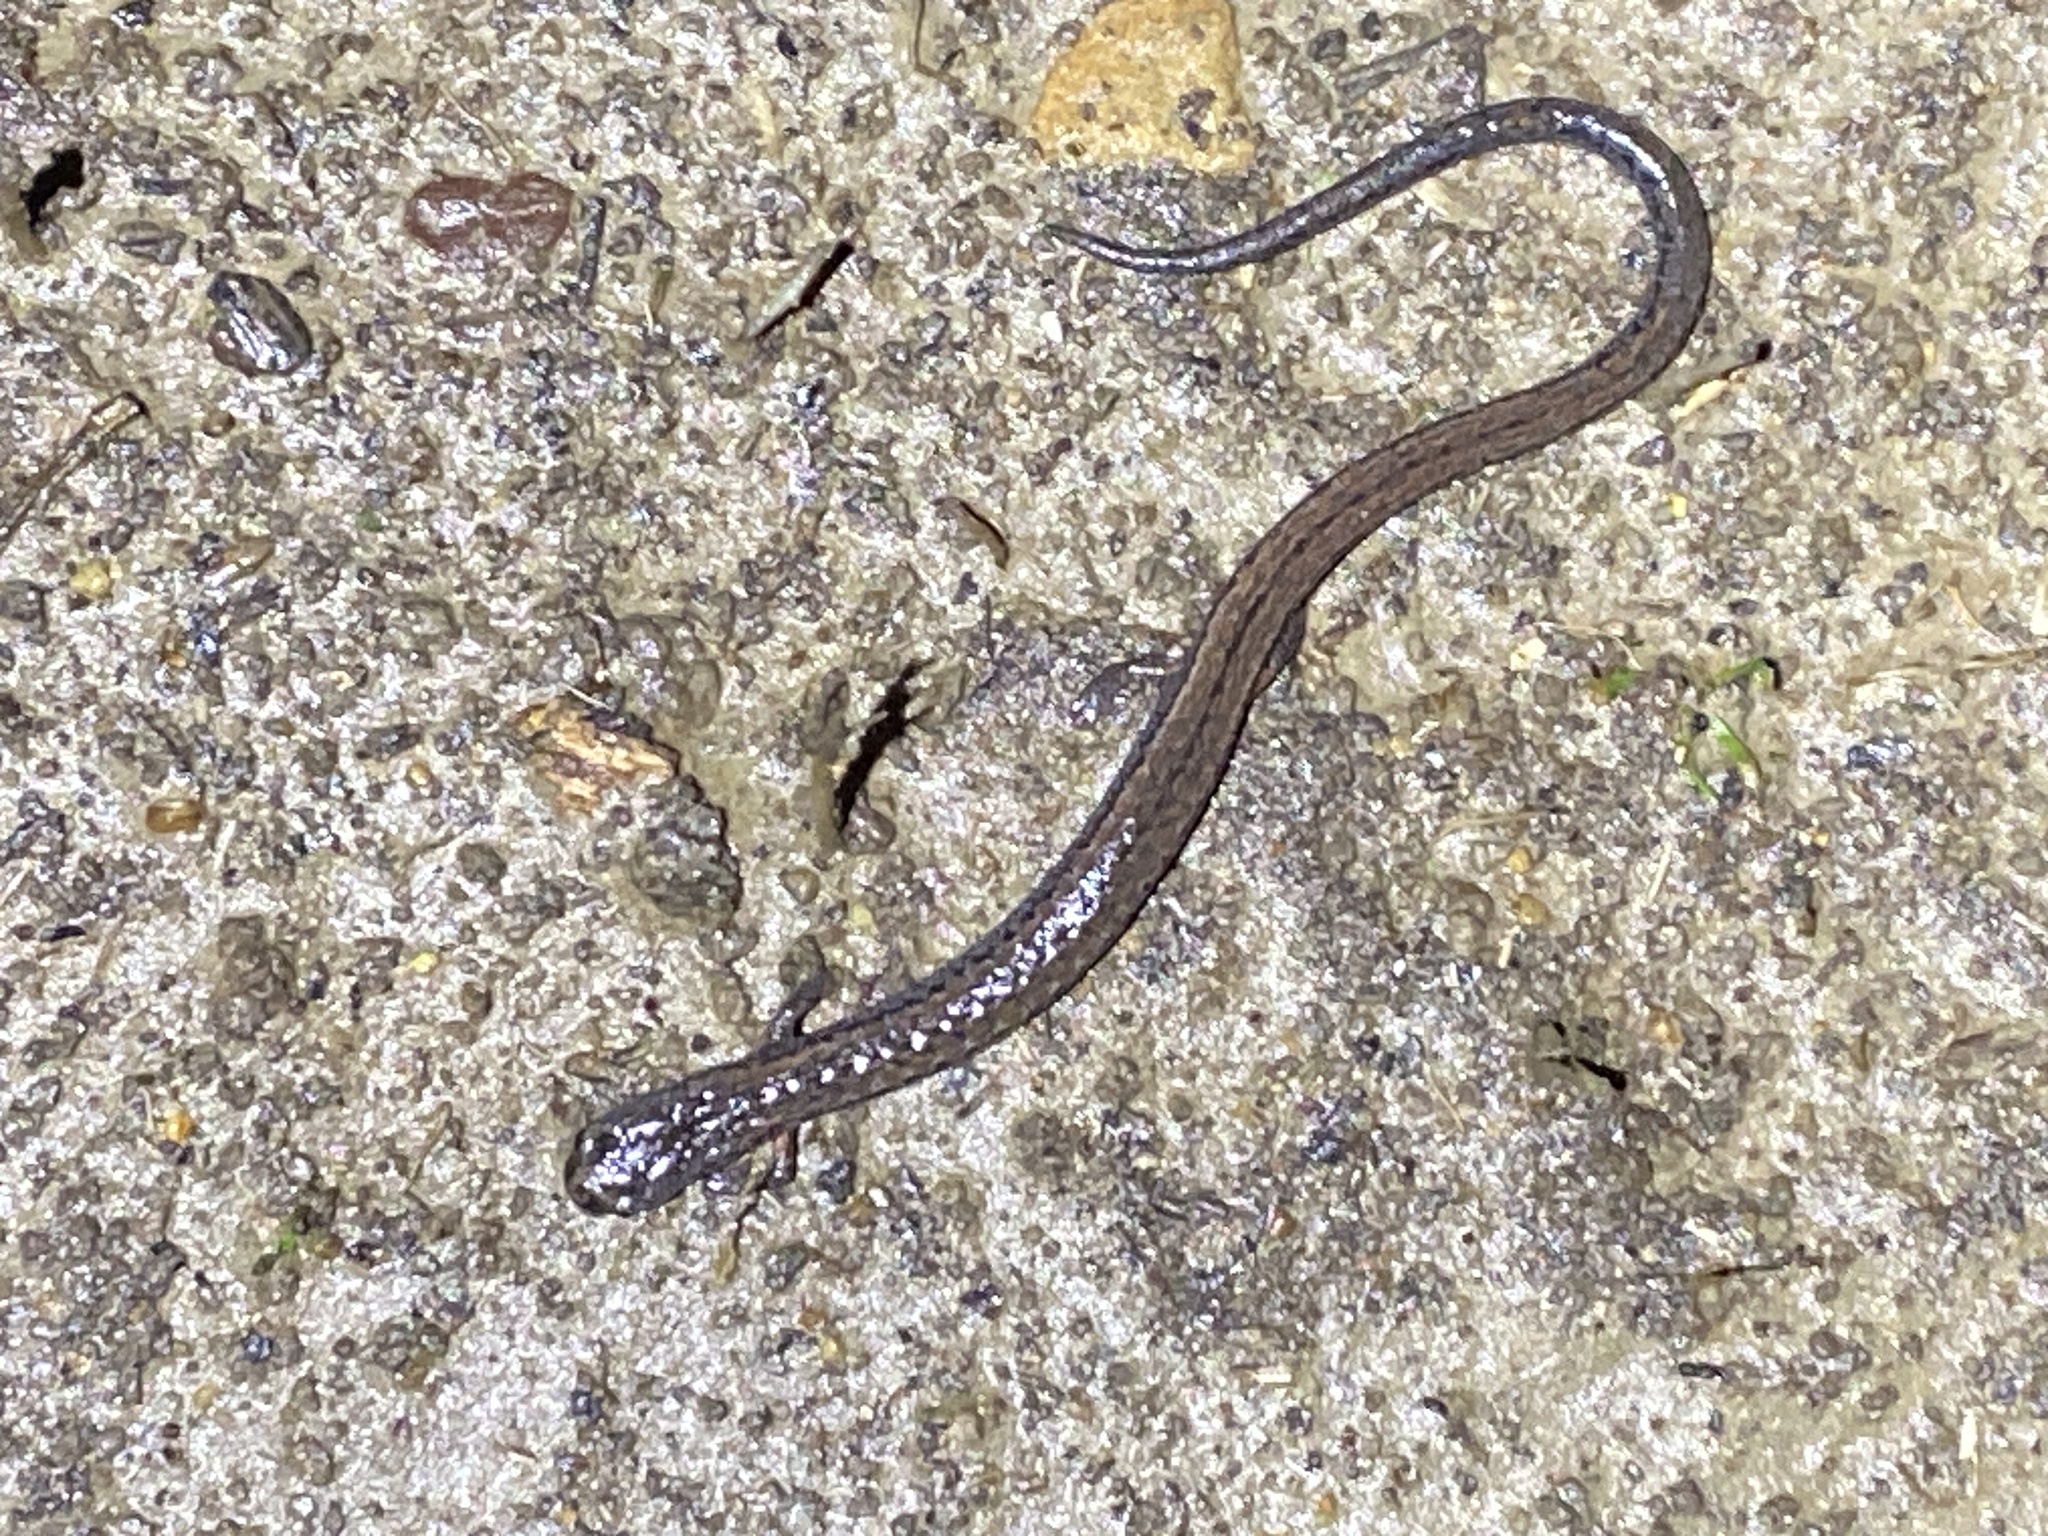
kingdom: Animalia
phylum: Chordata
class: Amphibia
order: Caudata
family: Plethodontidae
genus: Batrachoseps
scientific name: Batrachoseps attenuatus
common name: California slender salamander
